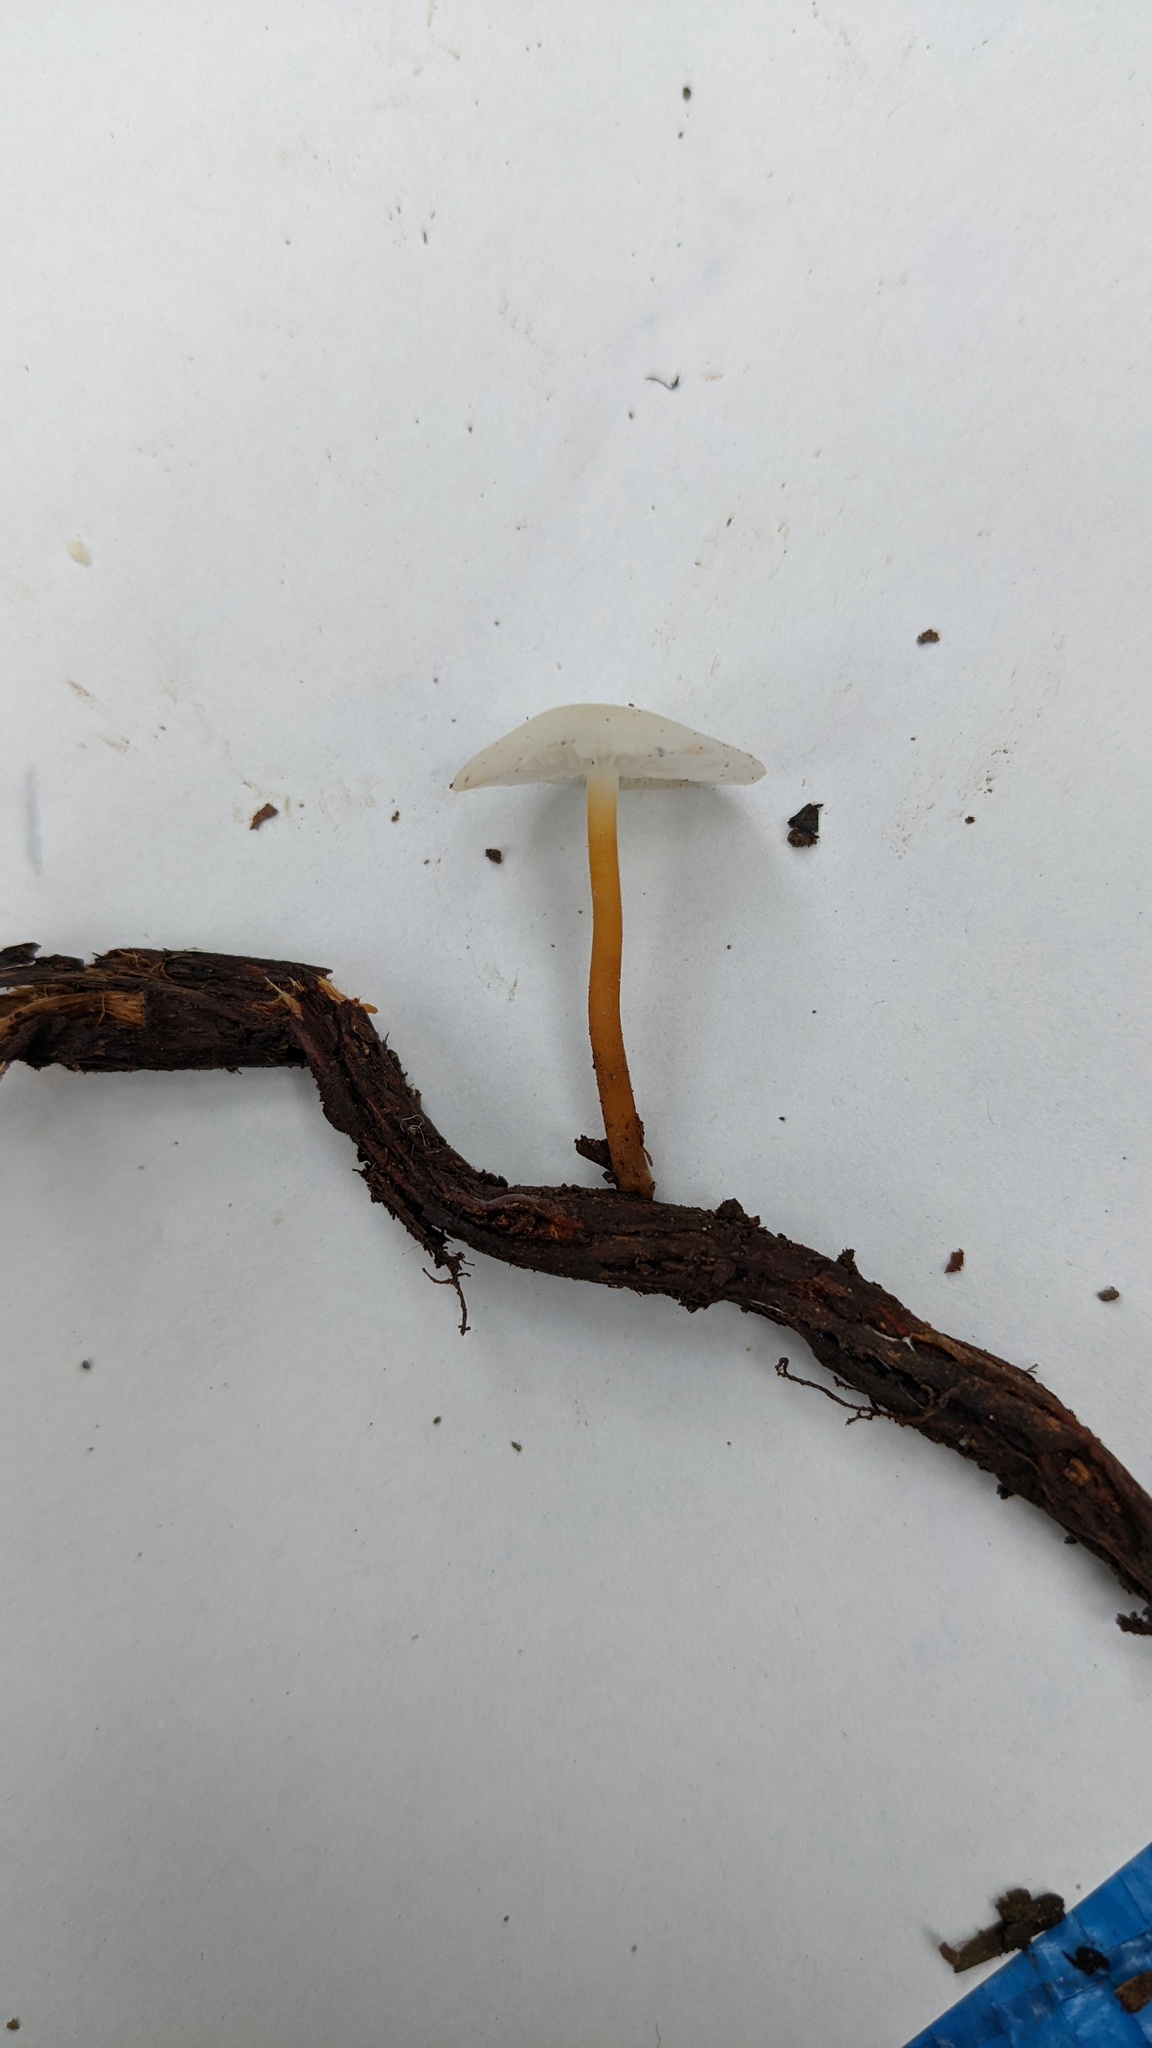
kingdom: Fungi
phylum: Basidiomycota
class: Agaricomycetes
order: Agaricales
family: Physalacriaceae
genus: Strobilurus
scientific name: Strobilurus ohshimae
